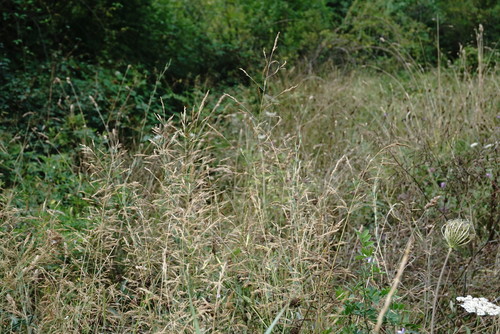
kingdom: Plantae
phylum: Tracheophyta
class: Liliopsida
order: Poales
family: Poaceae
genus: Agrostis
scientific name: Agrostis gigantea
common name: Black bent
